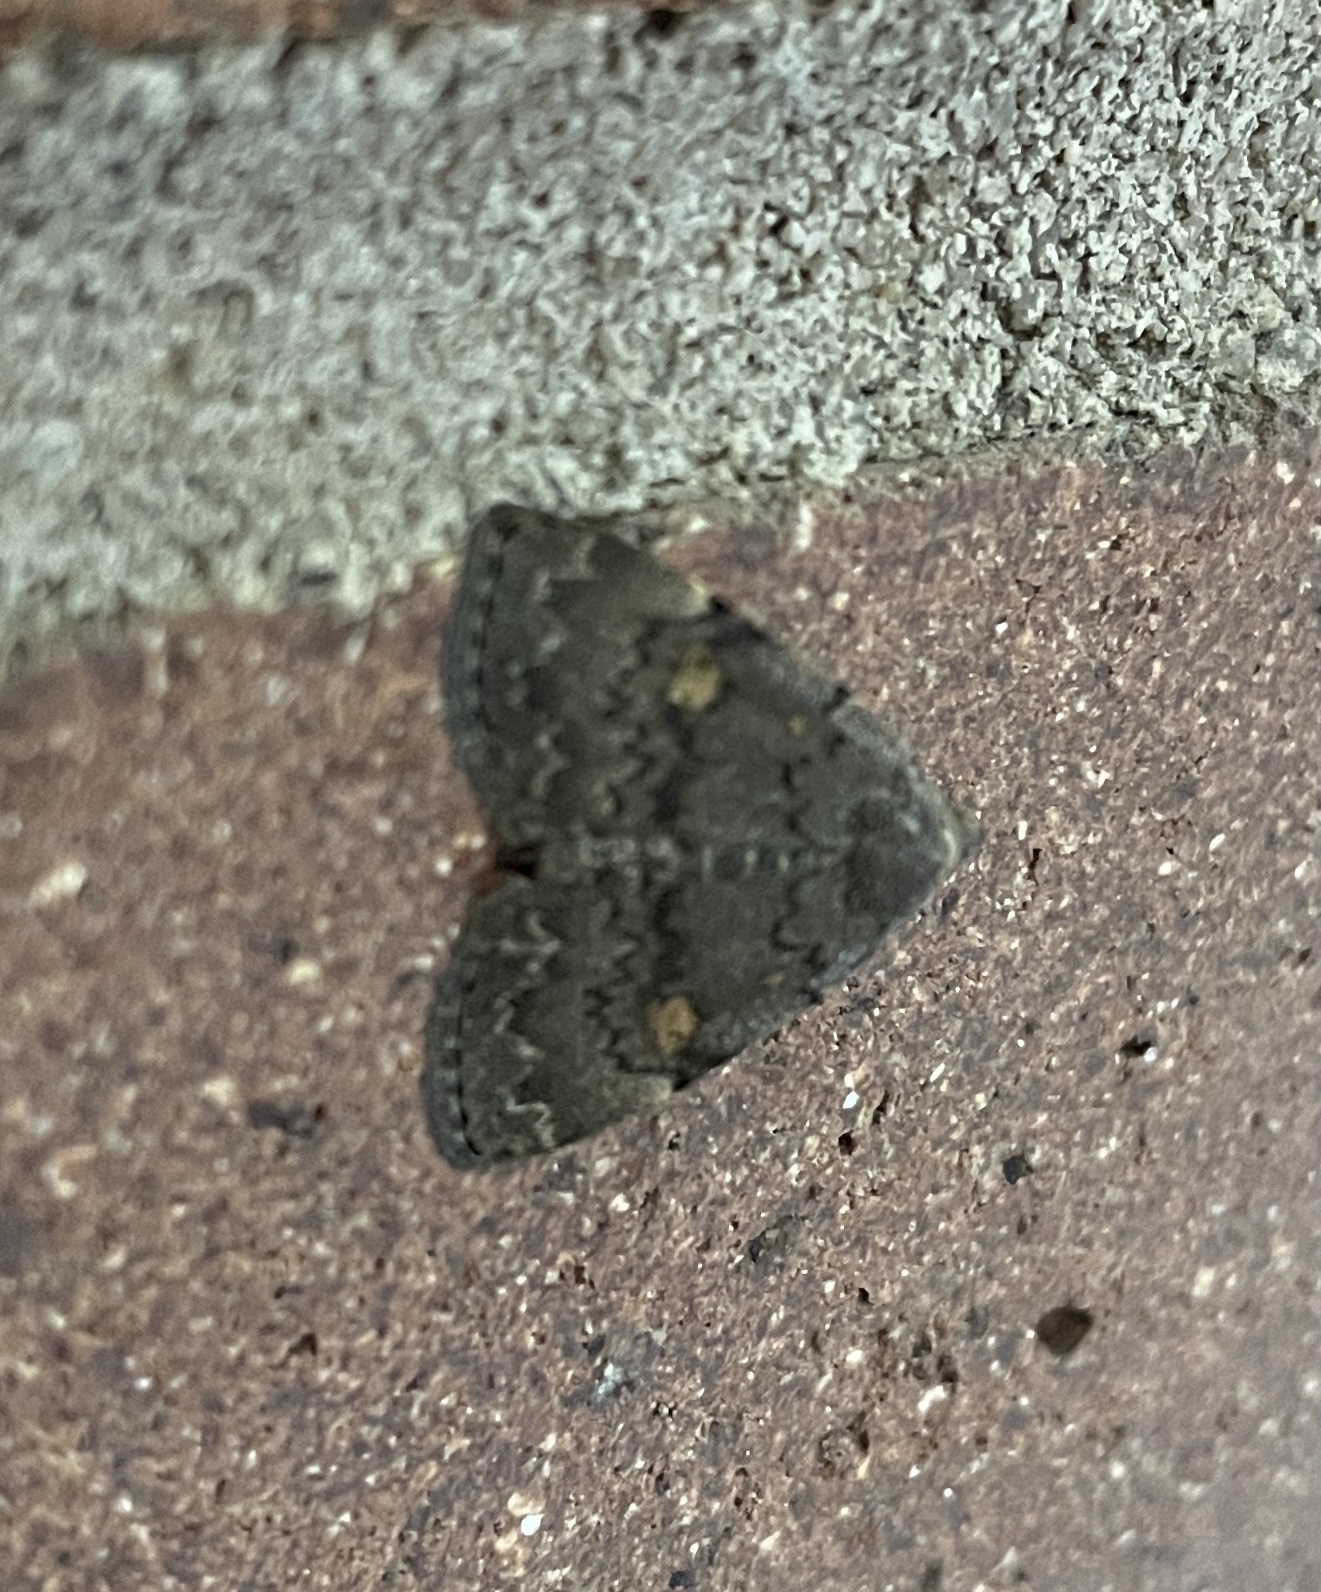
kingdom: Animalia
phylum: Arthropoda
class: Insecta
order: Lepidoptera
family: Erebidae
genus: Idia
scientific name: Idia aemula
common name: Common idia moth
